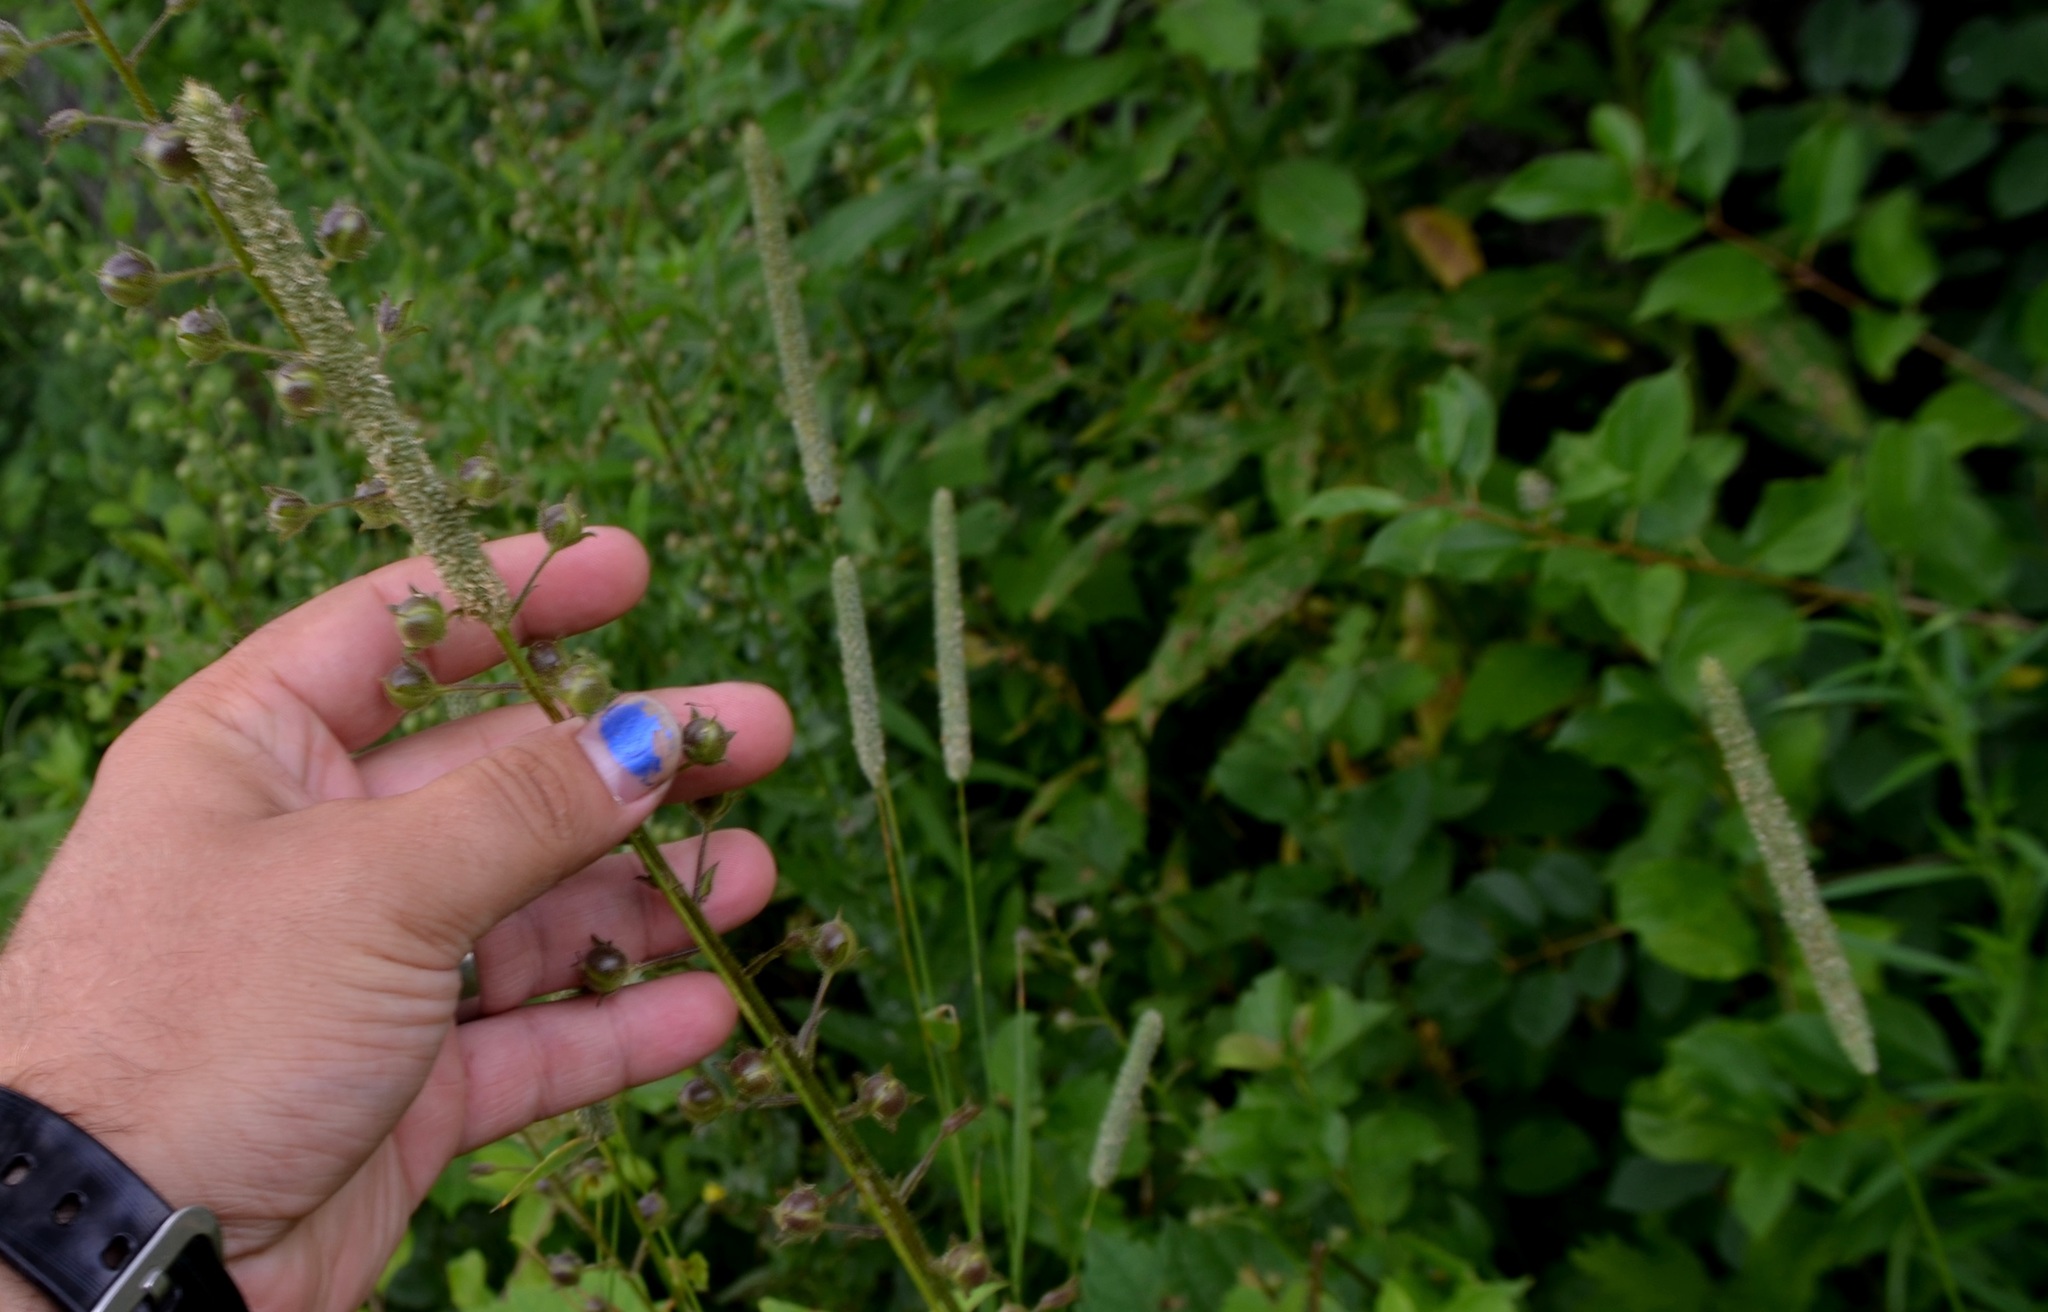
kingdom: Plantae
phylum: Tracheophyta
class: Liliopsida
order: Poales
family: Poaceae
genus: Phleum
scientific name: Phleum pratense
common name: Timothy grass
